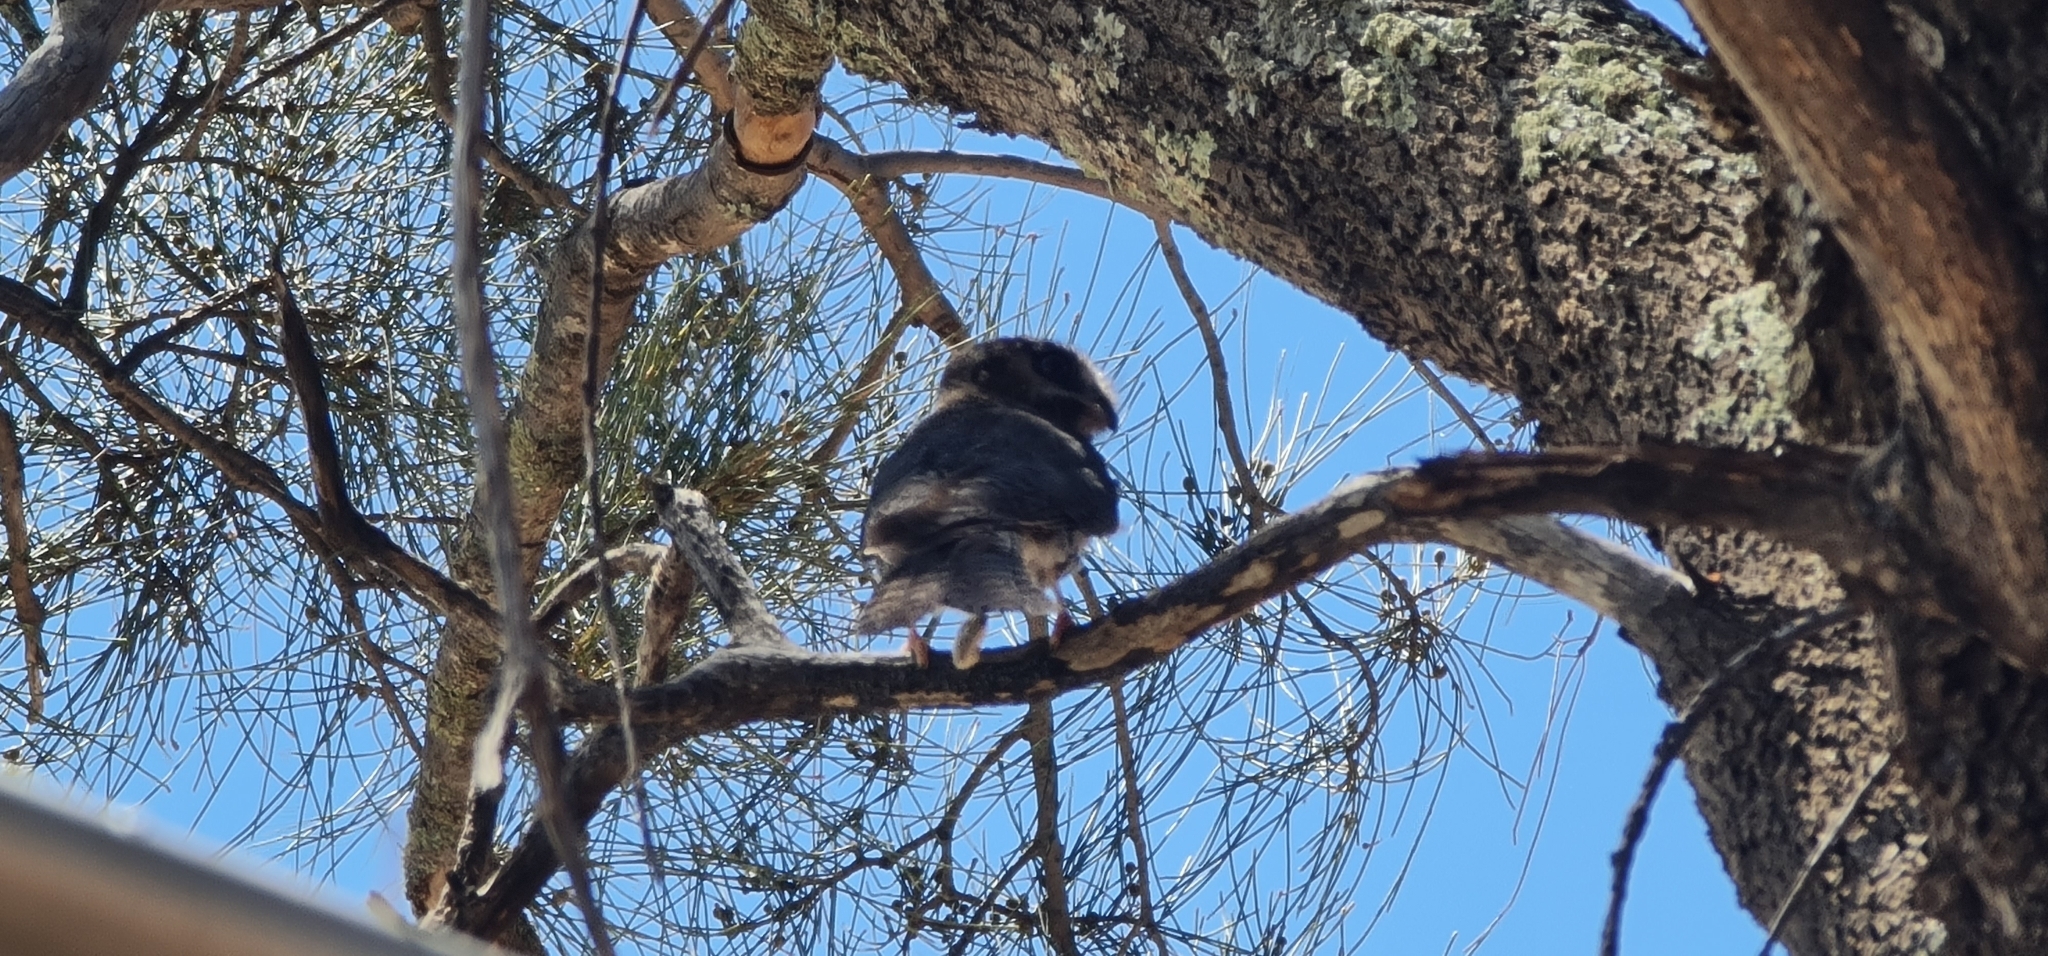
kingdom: Animalia
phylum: Chordata
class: Aves
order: Apodiformes
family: Aegothelidae
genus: Aegotheles
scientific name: Aegotheles cristatus
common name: Australian owlet-nightjar
